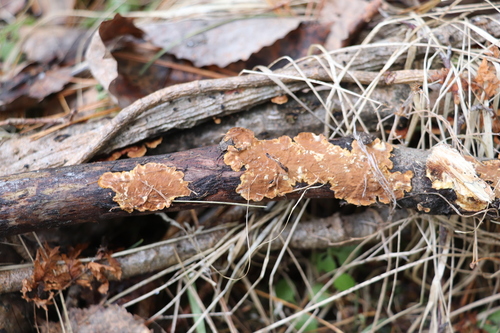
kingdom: Fungi
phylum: Basidiomycota
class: Agaricomycetes
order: Hymenochaetales
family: Hymenochaetaceae
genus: Hydnoporia
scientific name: Hydnoporia tabacina
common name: Willow glue
